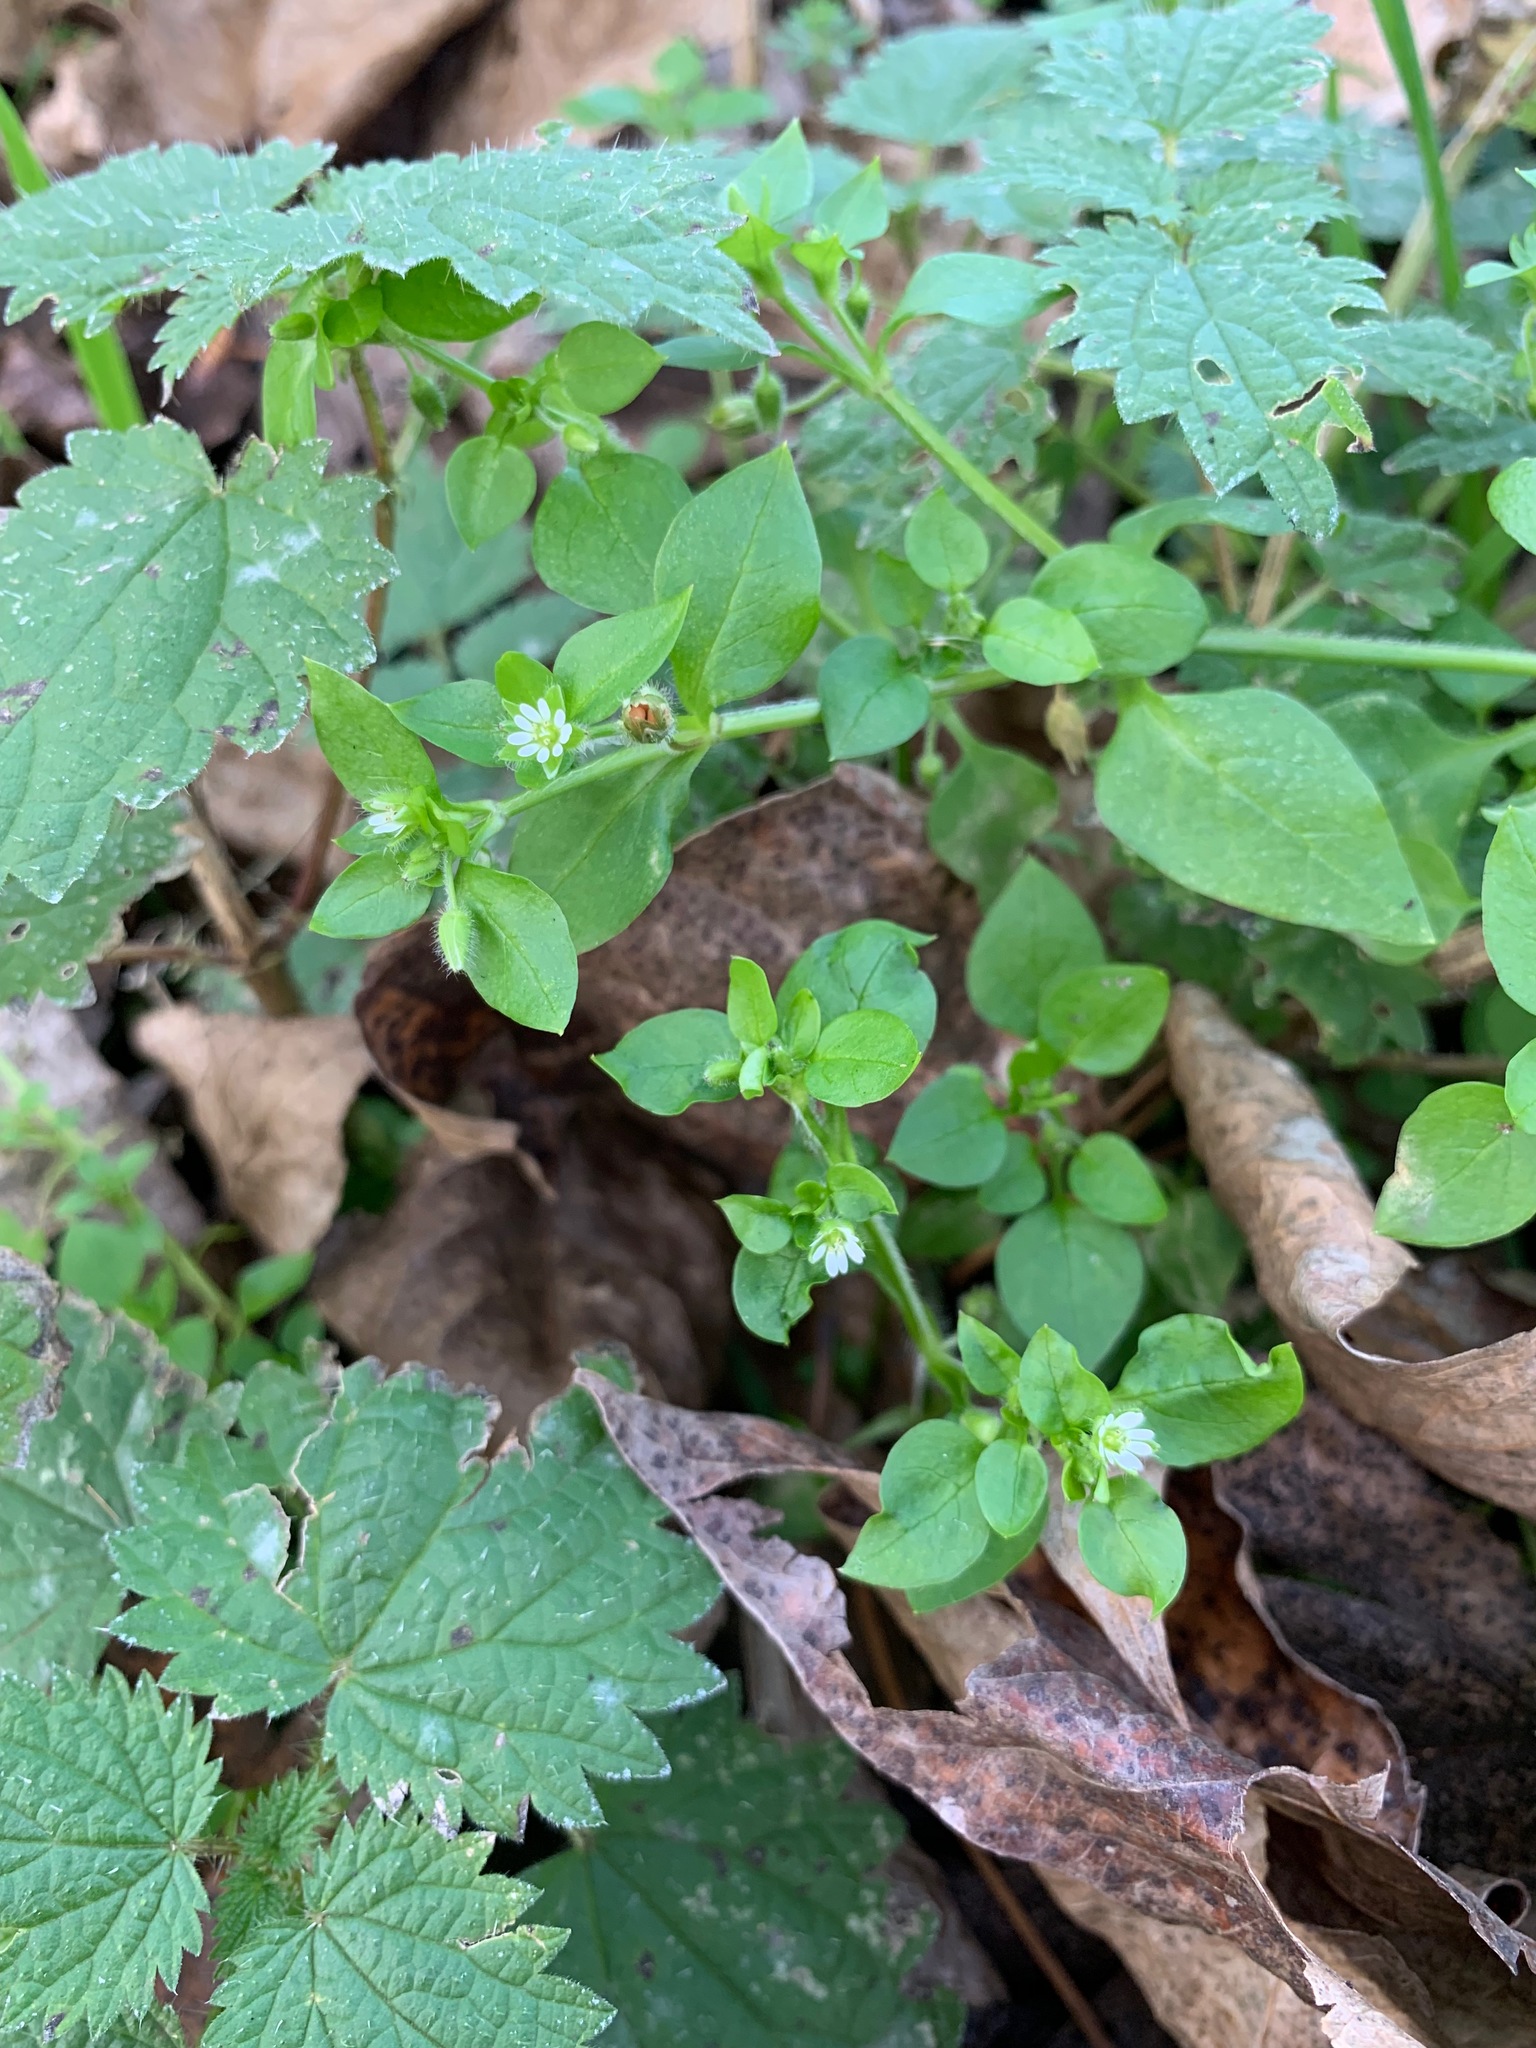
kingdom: Plantae
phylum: Tracheophyta
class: Magnoliopsida
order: Caryophyllales
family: Caryophyllaceae
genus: Stellaria
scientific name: Stellaria media
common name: Common chickweed
